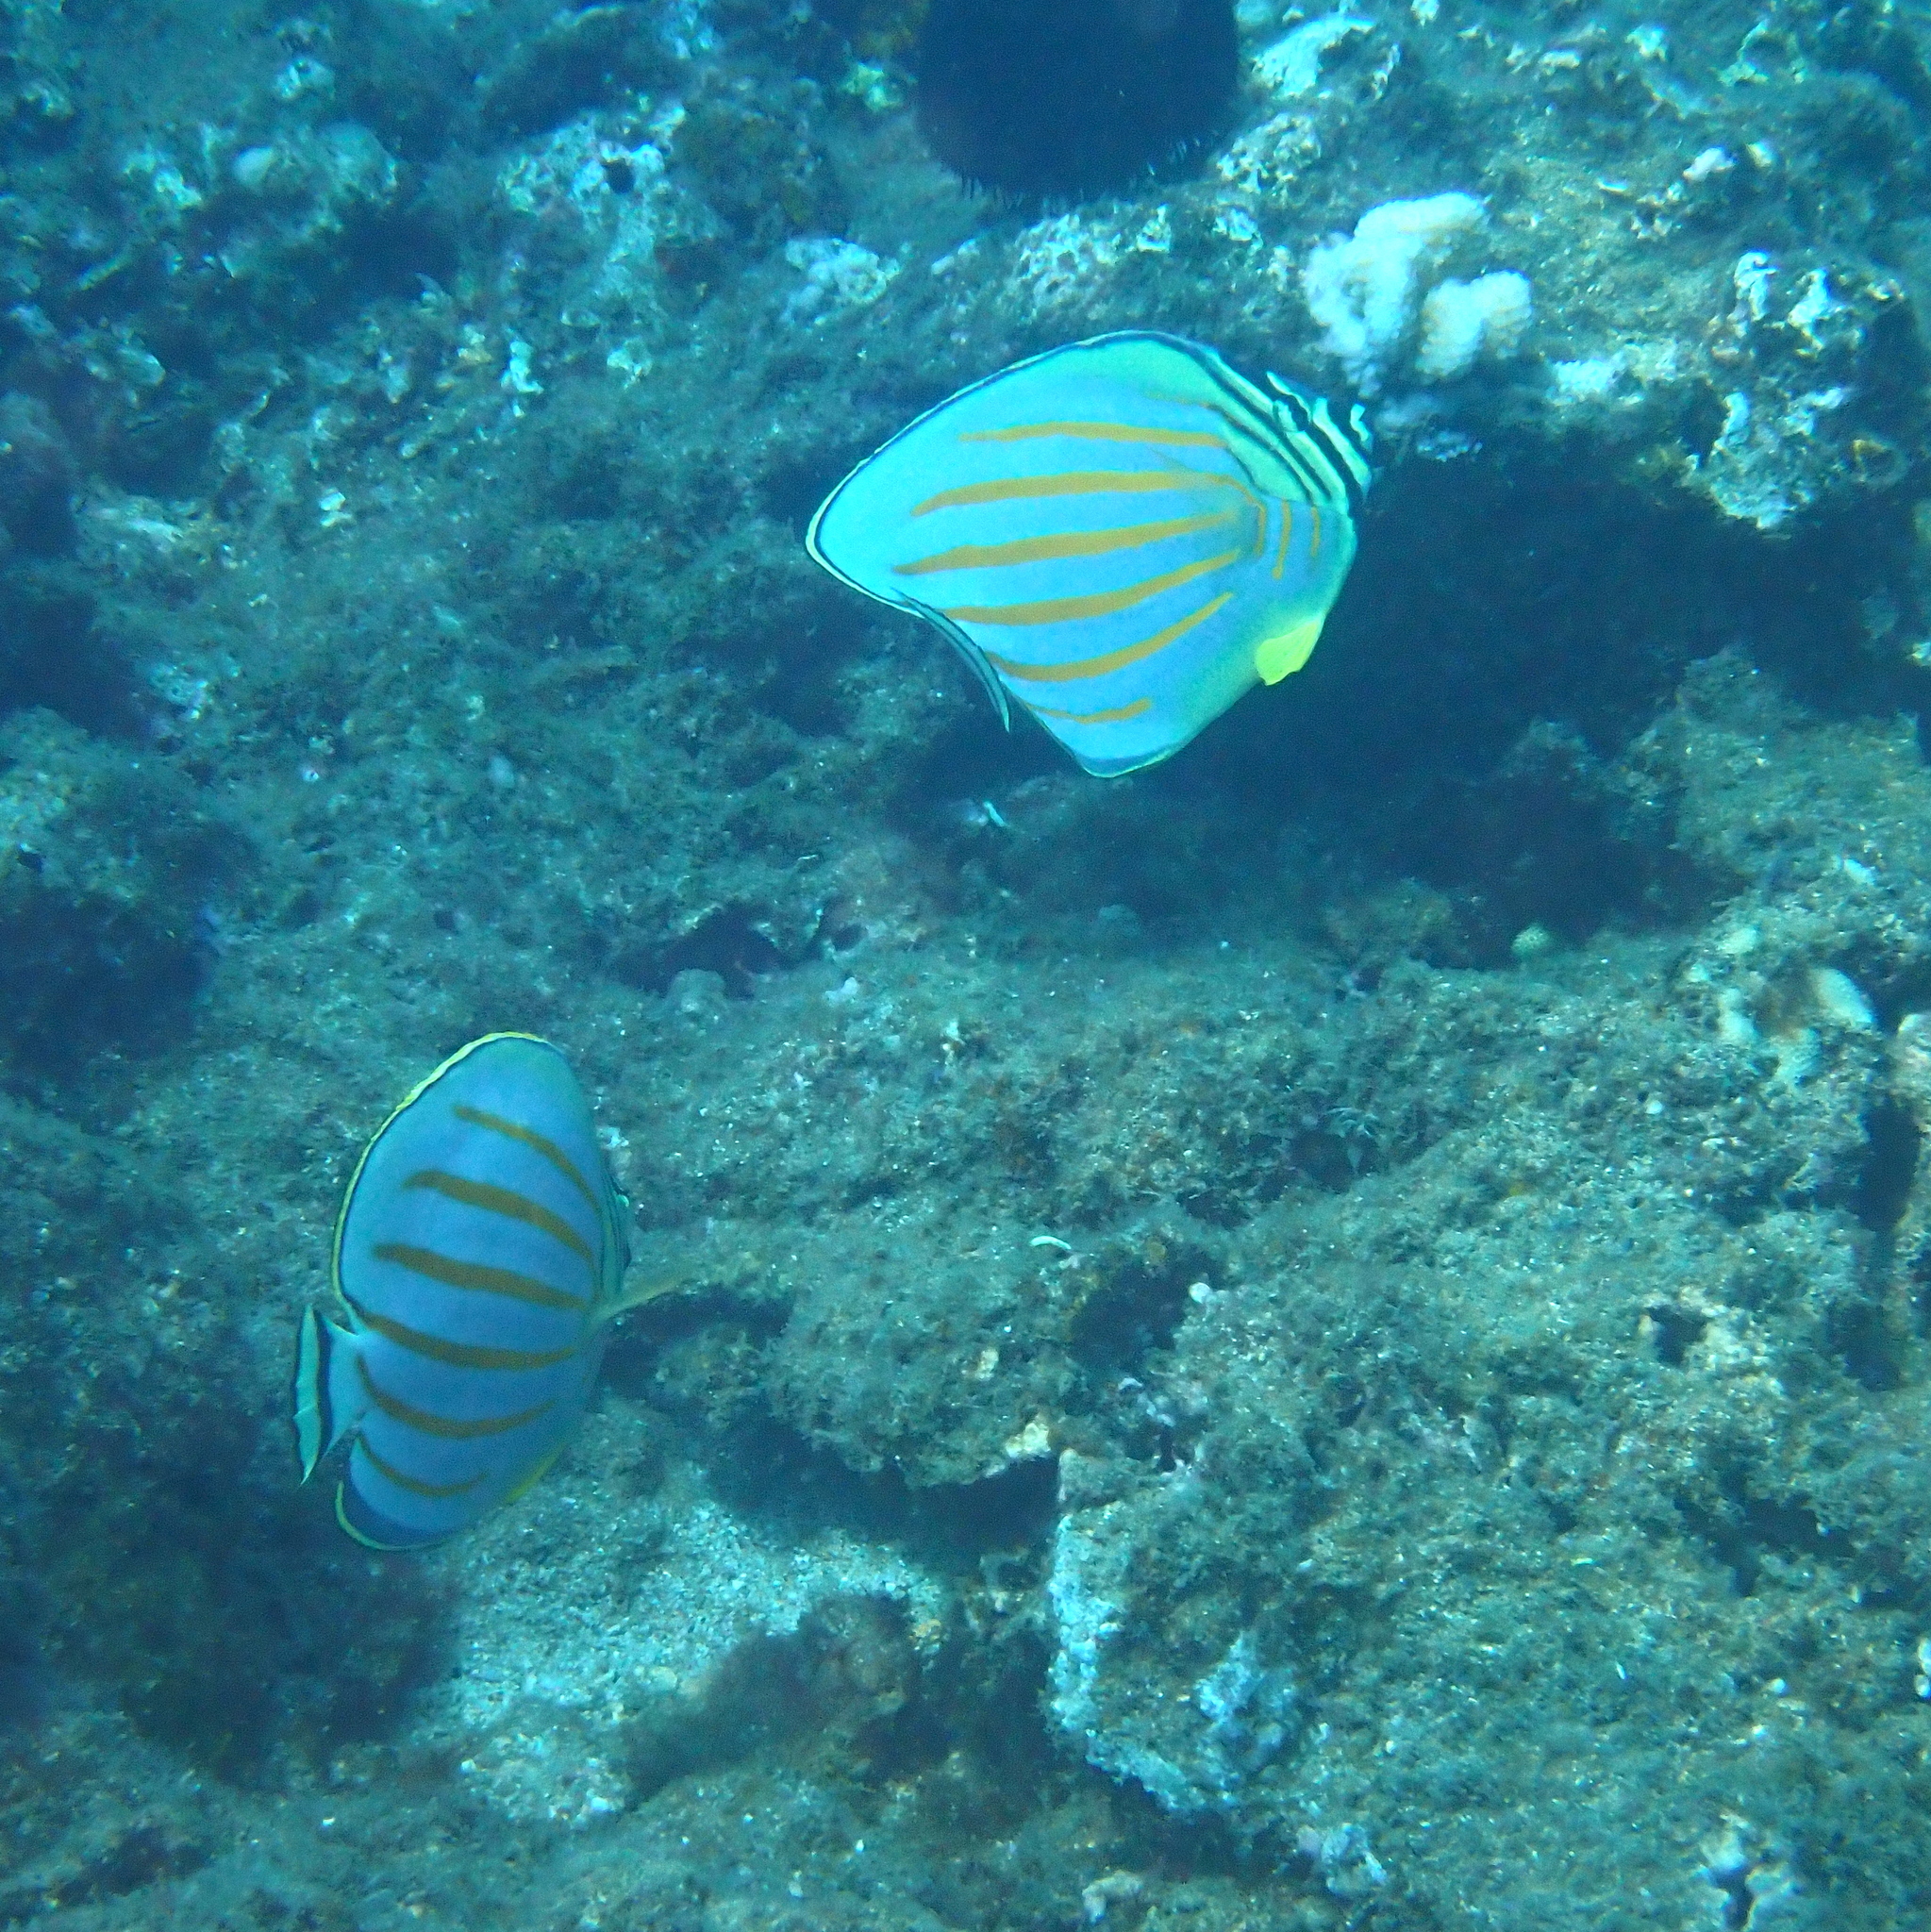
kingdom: Animalia
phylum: Chordata
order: Perciformes
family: Chaetodontidae
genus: Chaetodon
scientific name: Chaetodon ornatissimus
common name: Ornate butterflyfish
